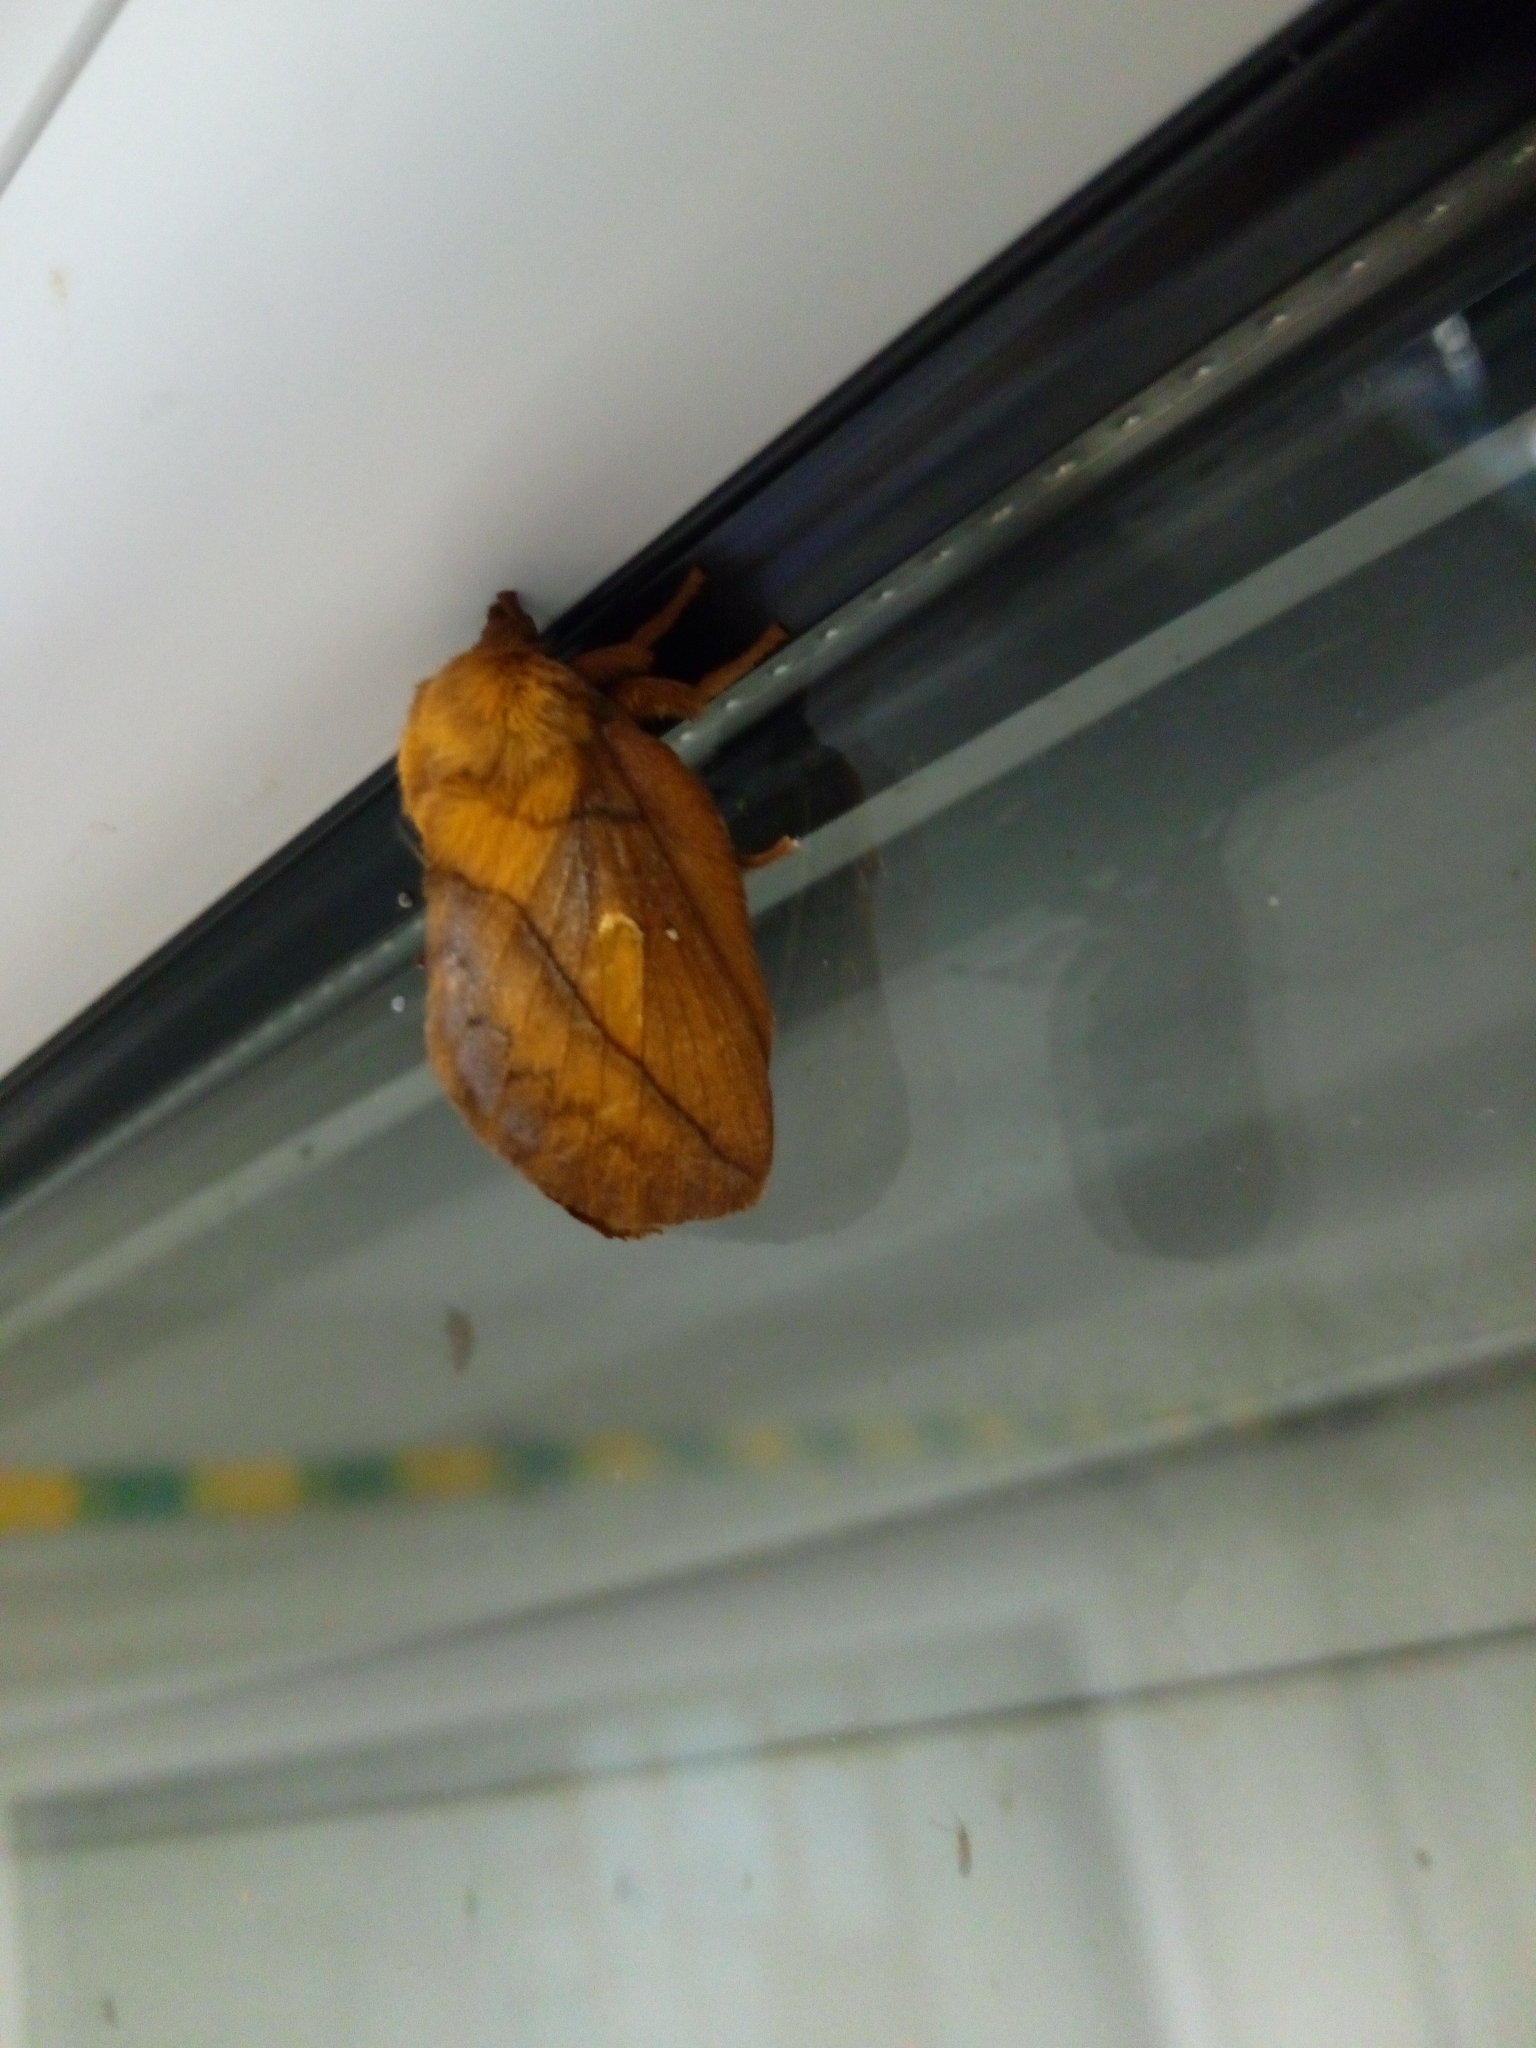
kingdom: Animalia
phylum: Arthropoda
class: Insecta
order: Lepidoptera
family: Lasiocampidae
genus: Euthrix
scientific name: Euthrix potatoria
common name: Drinker
